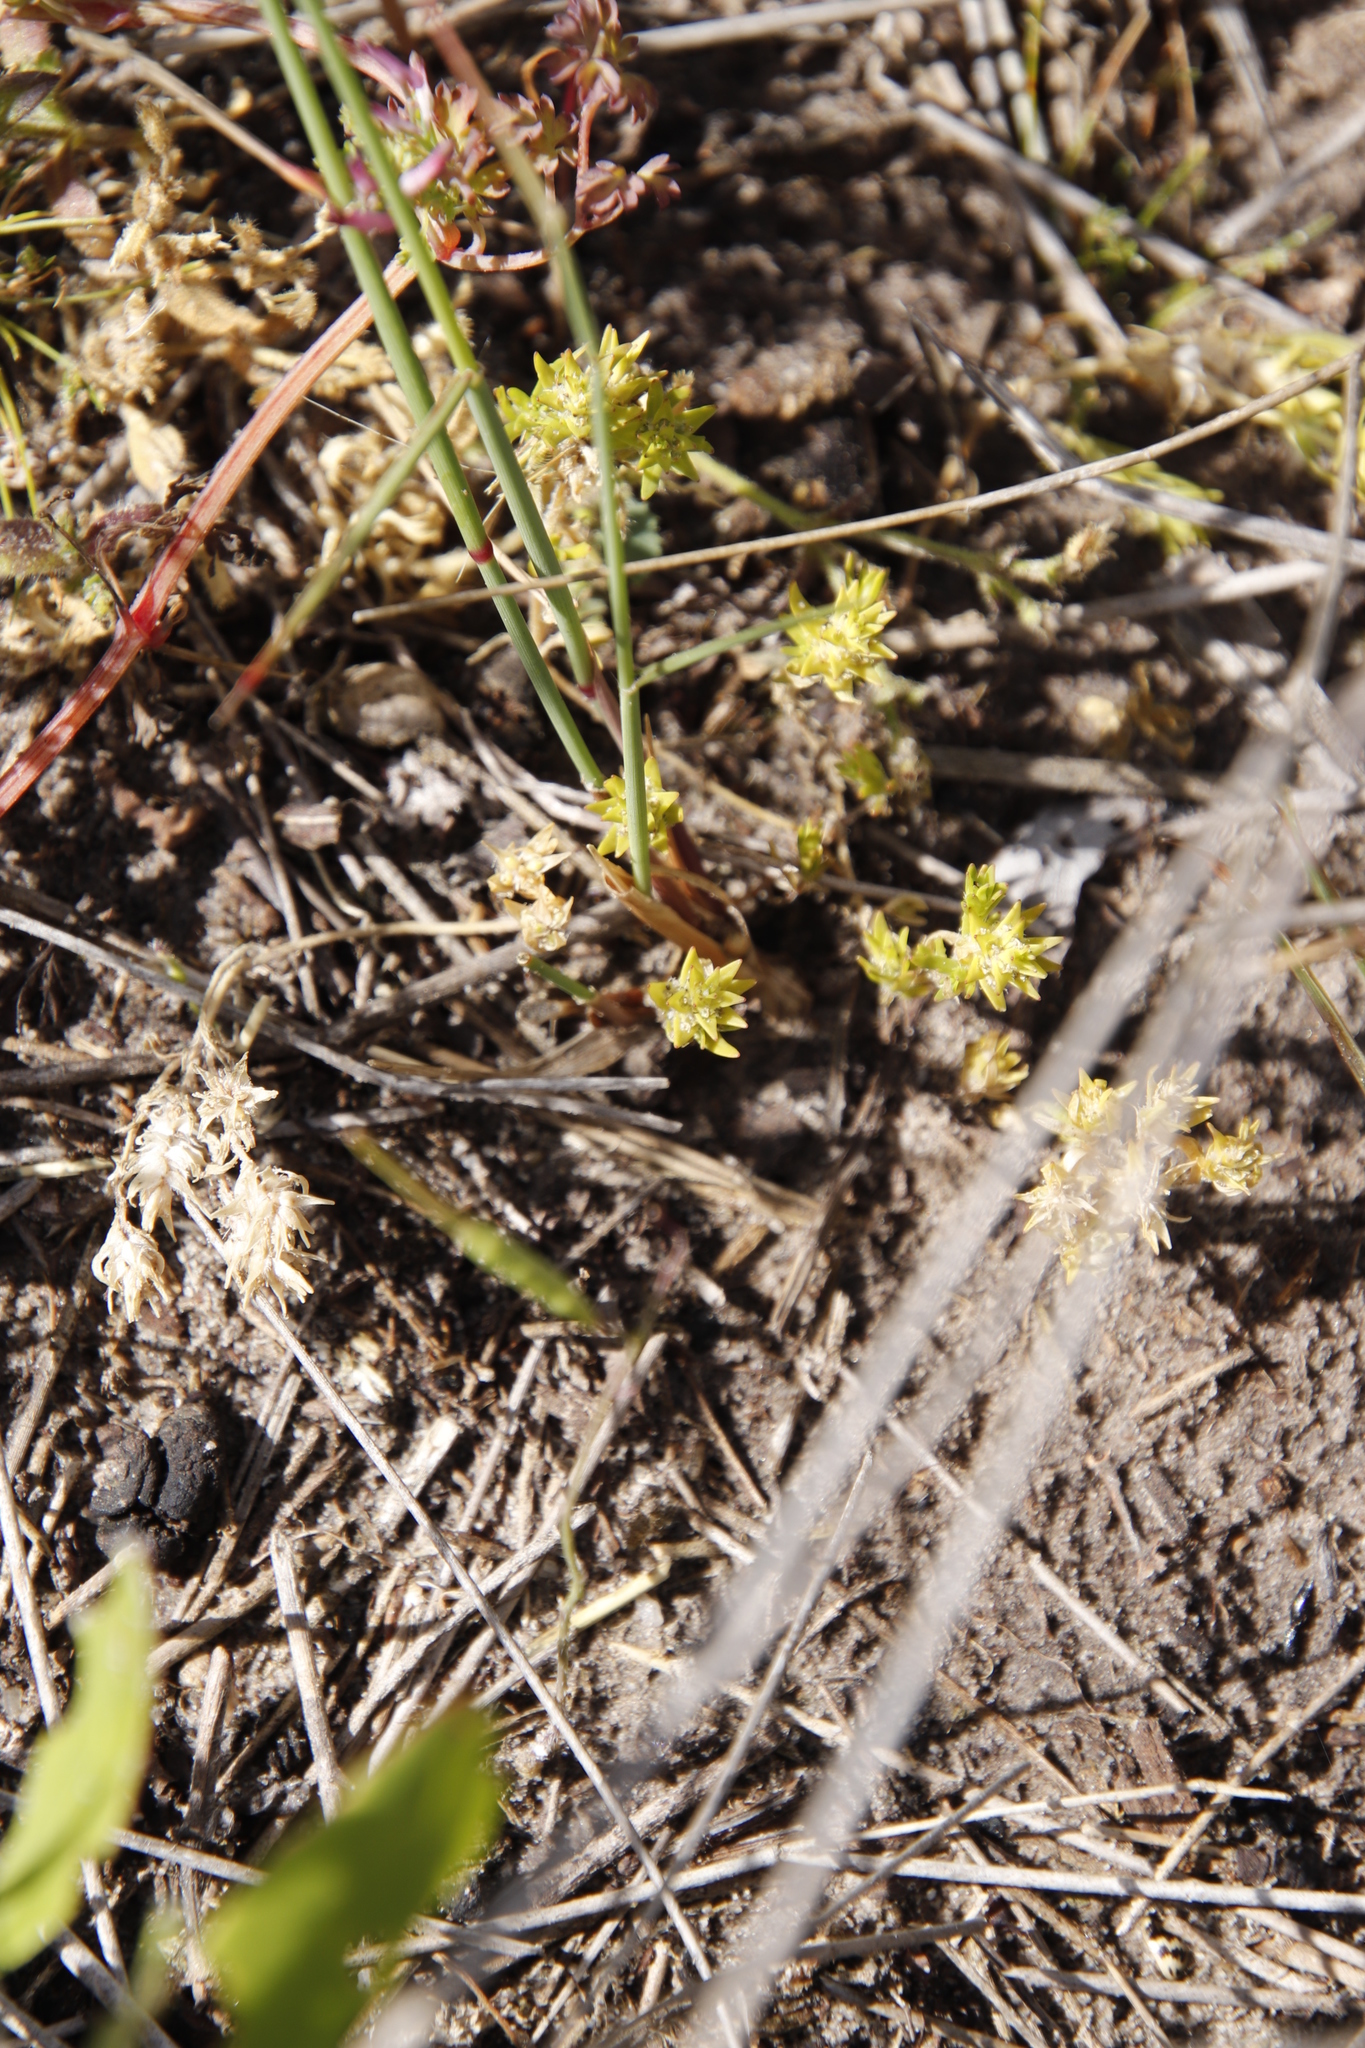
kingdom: Plantae
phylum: Tracheophyta
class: Magnoliopsida
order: Lamiales
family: Scrophulariaceae
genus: Dischisma
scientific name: Dischisma capitatum
